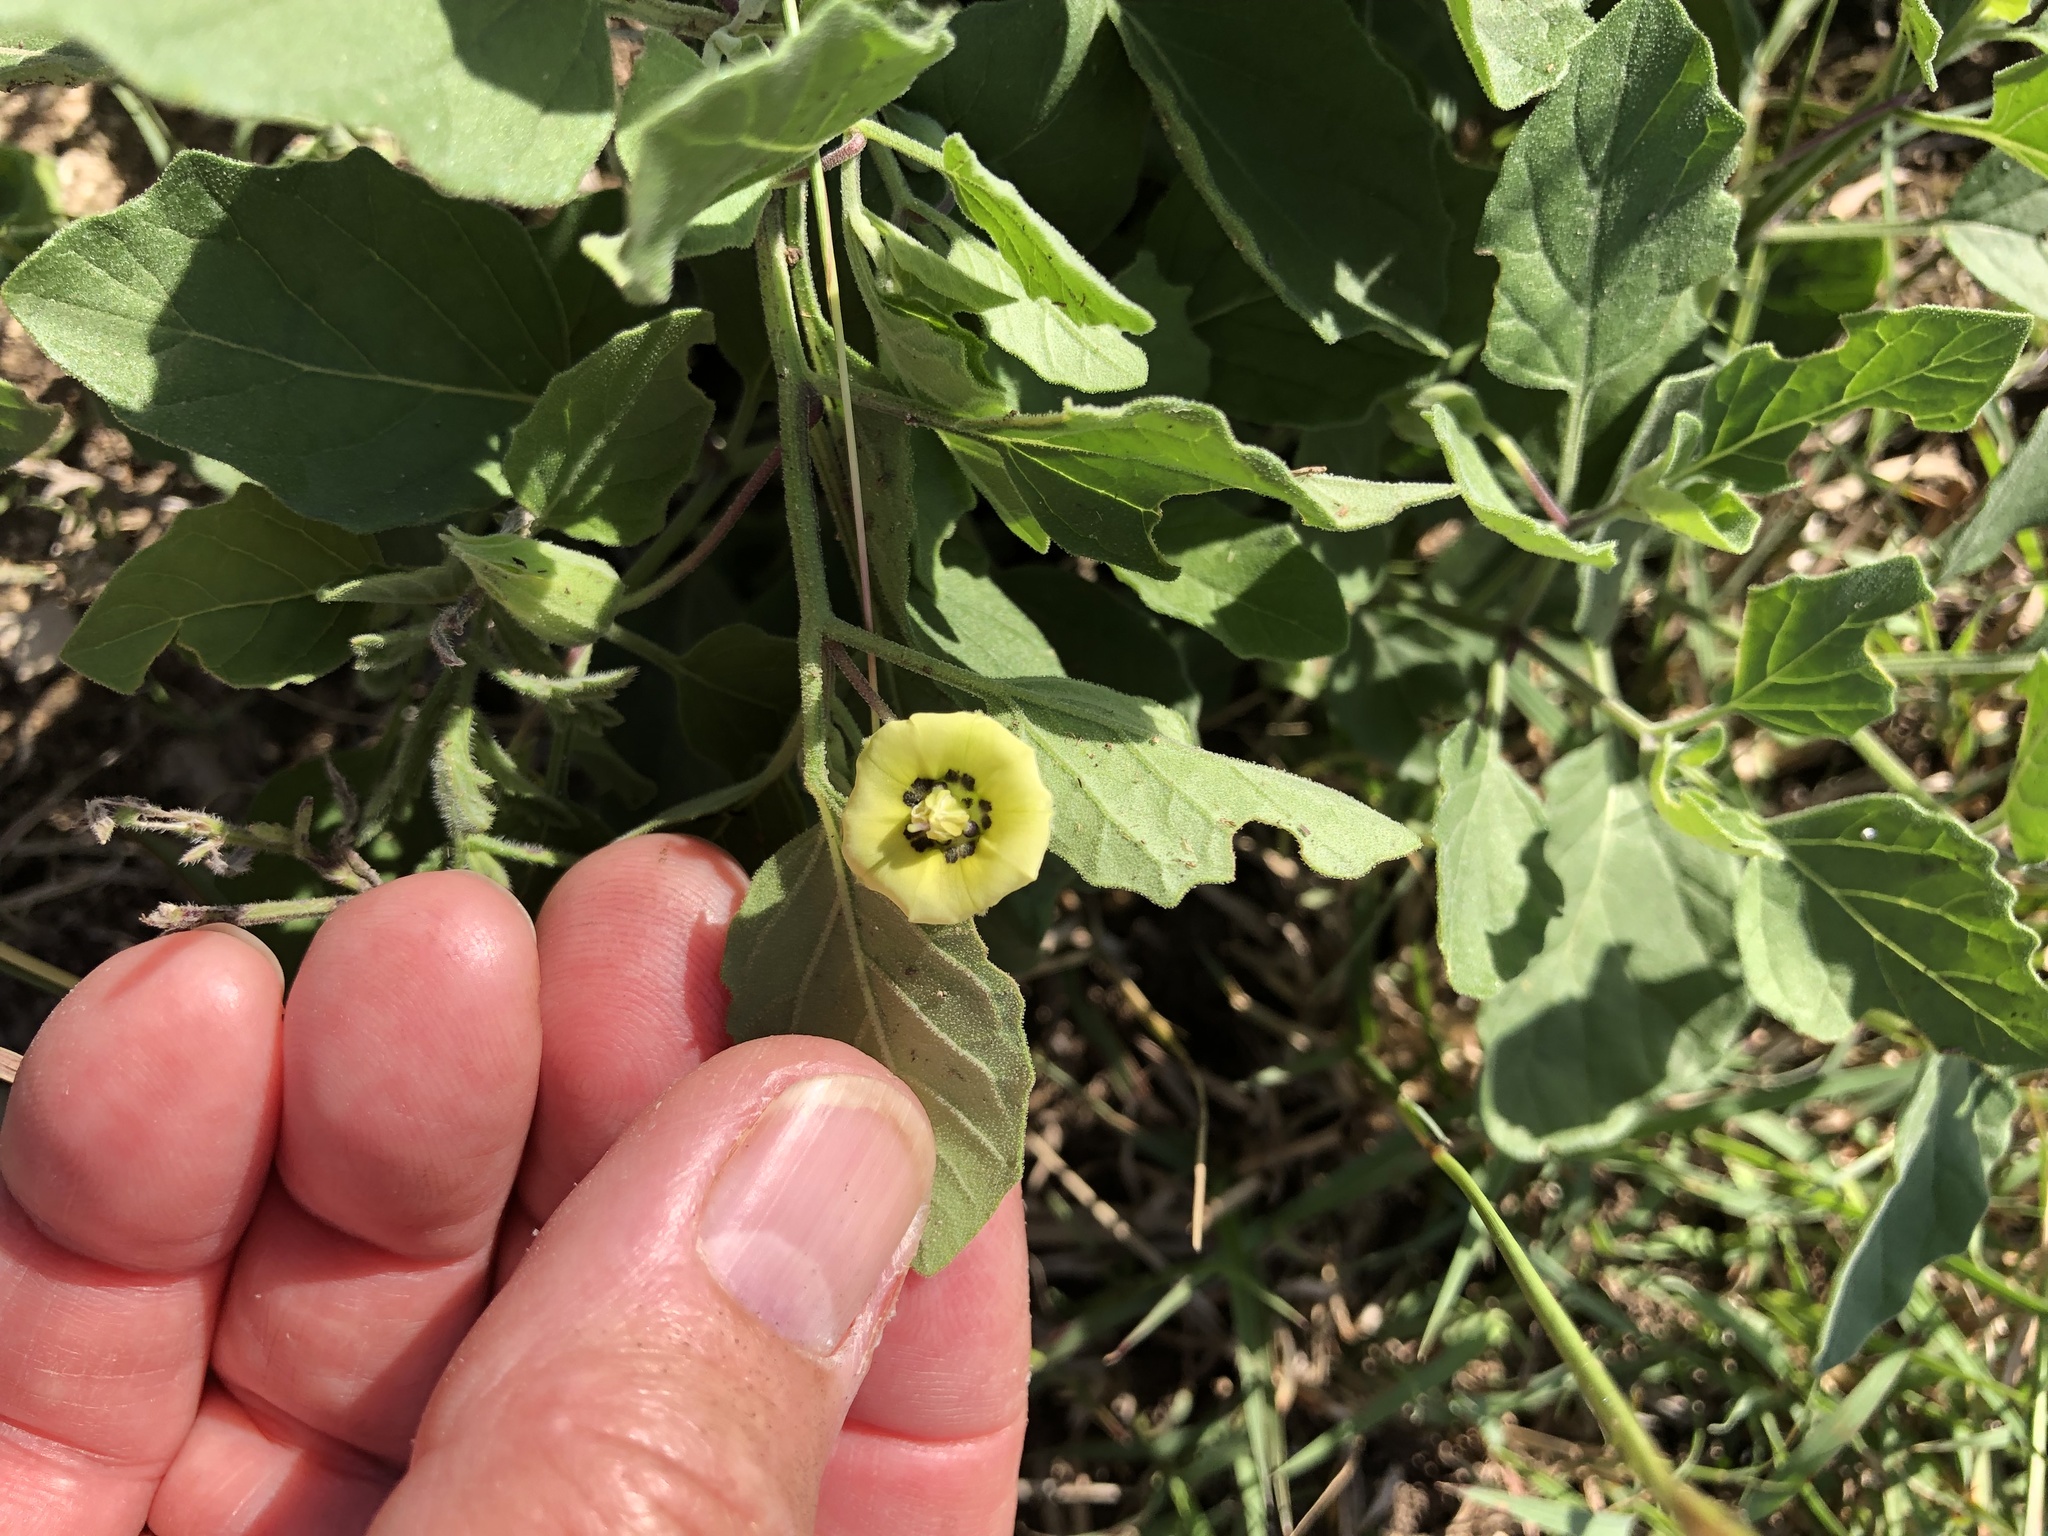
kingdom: Plantae
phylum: Tracheophyta
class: Magnoliopsida
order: Solanales
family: Solanaceae
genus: Physalis
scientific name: Physalis cinerascens
